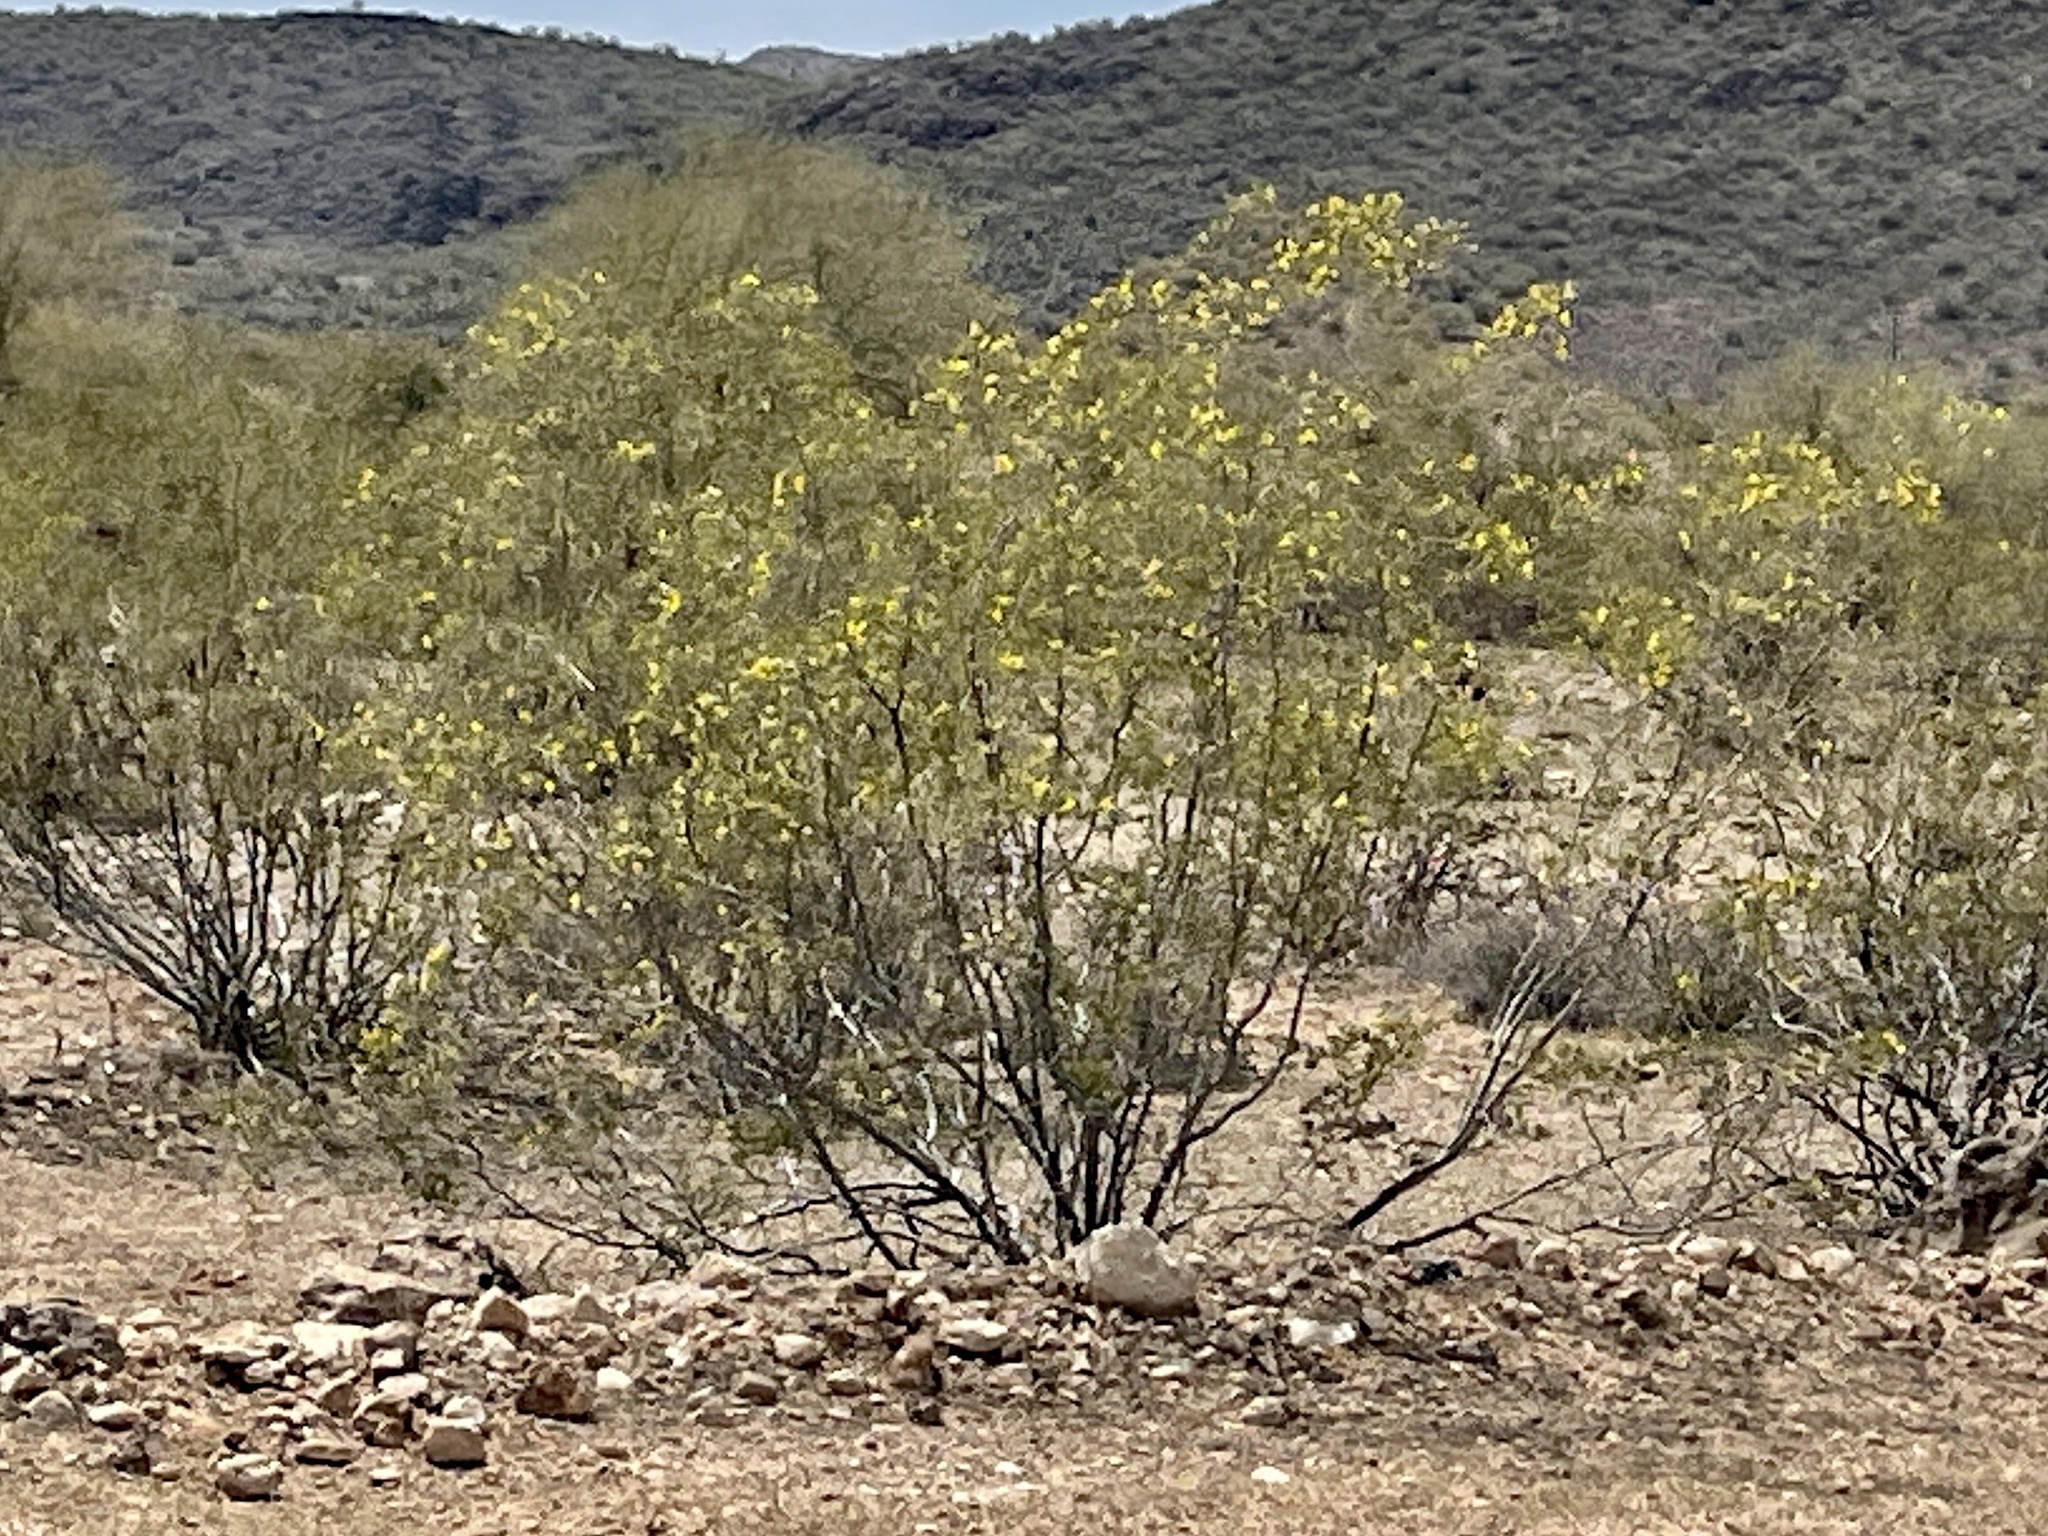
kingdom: Plantae
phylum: Tracheophyta
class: Magnoliopsida
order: Zygophyllales
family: Zygophyllaceae
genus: Larrea
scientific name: Larrea tridentata
